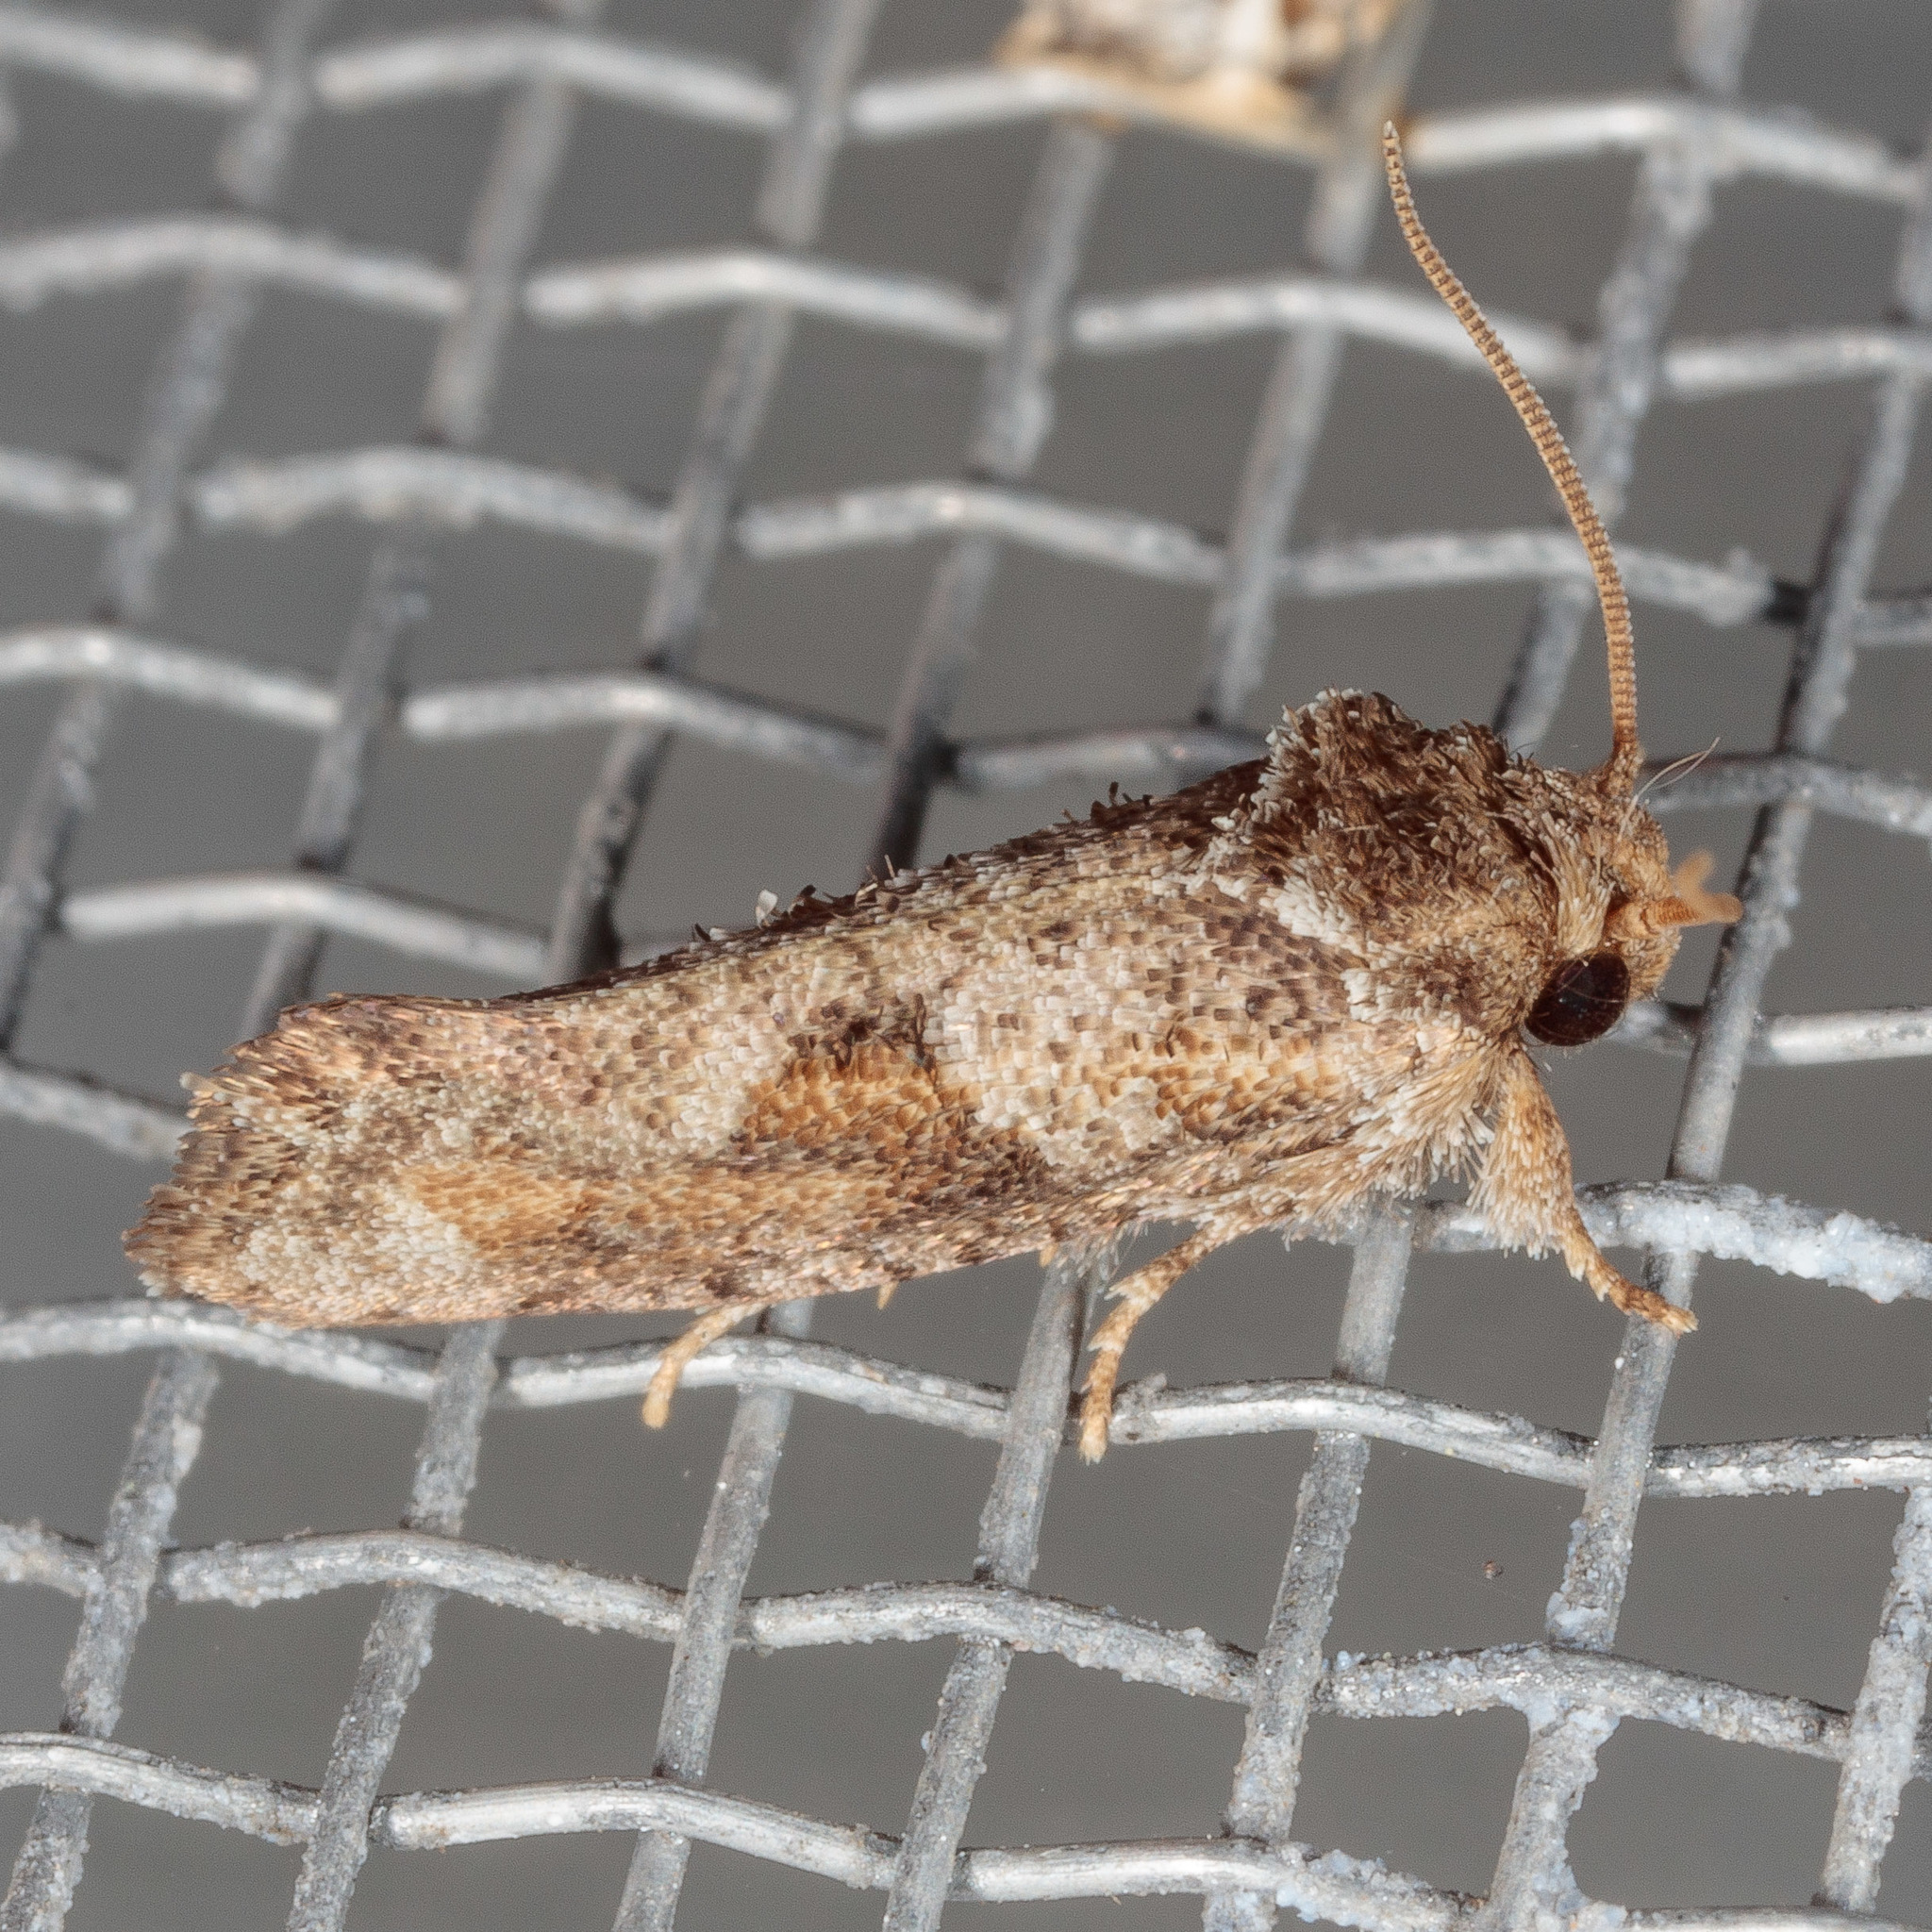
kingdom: Animalia
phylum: Arthropoda
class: Insecta
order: Lepidoptera
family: Tineidae
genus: Acrolophus
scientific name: Acrolophus piger
